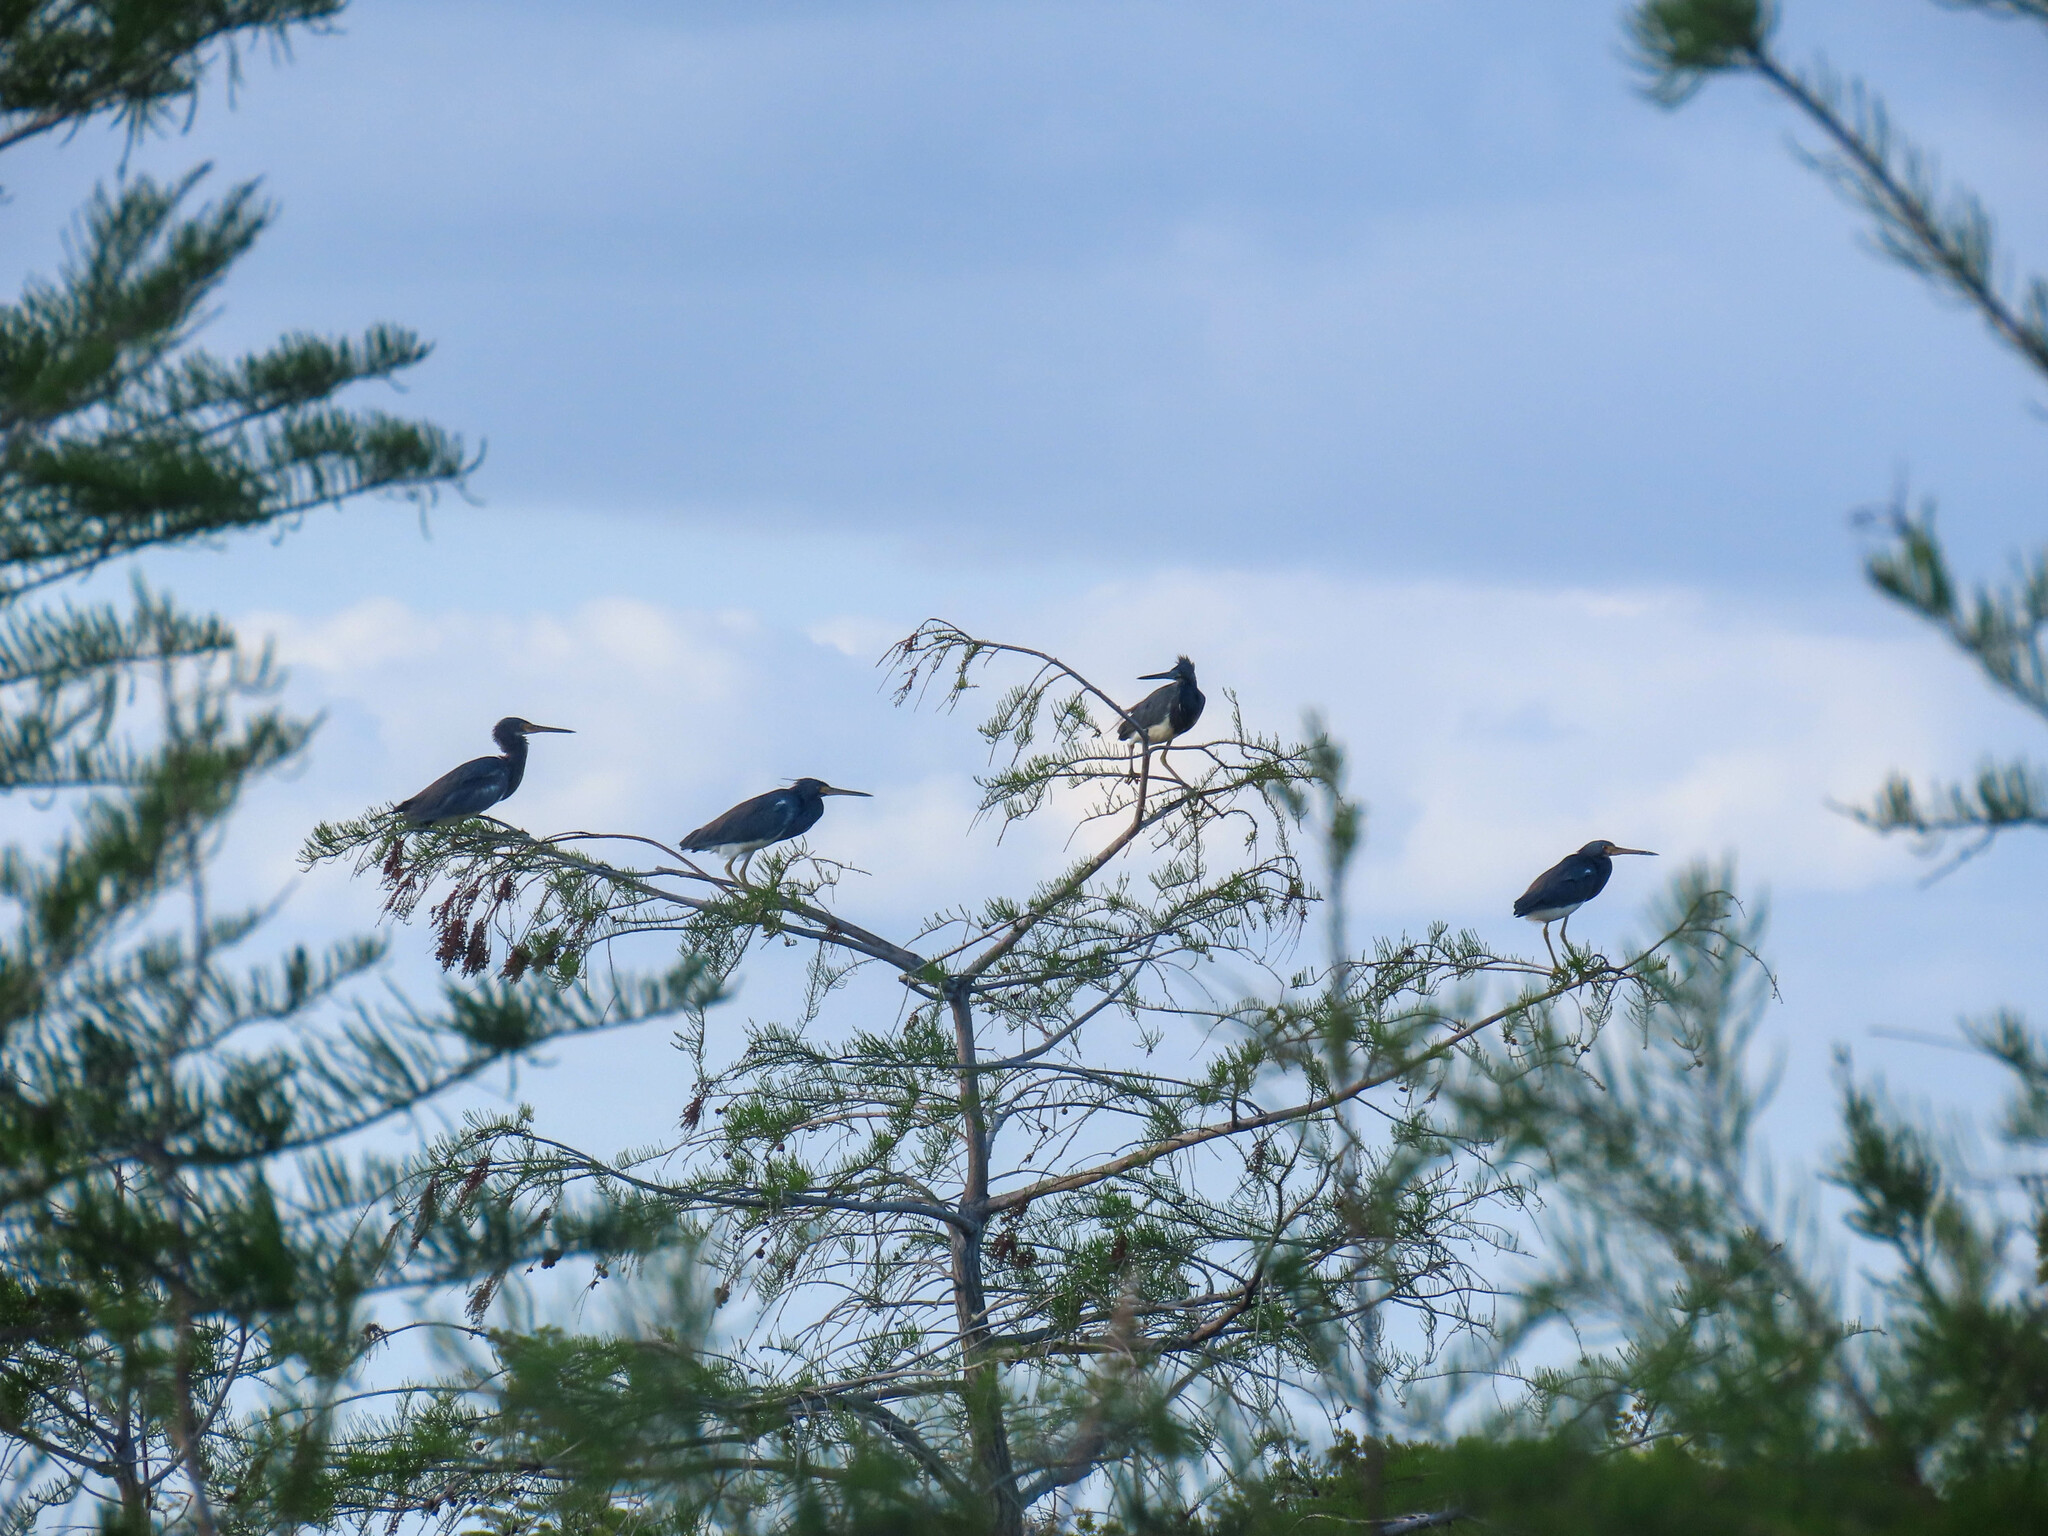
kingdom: Animalia
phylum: Chordata
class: Aves
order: Pelecaniformes
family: Ardeidae
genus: Egretta
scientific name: Egretta tricolor
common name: Tricolored heron
